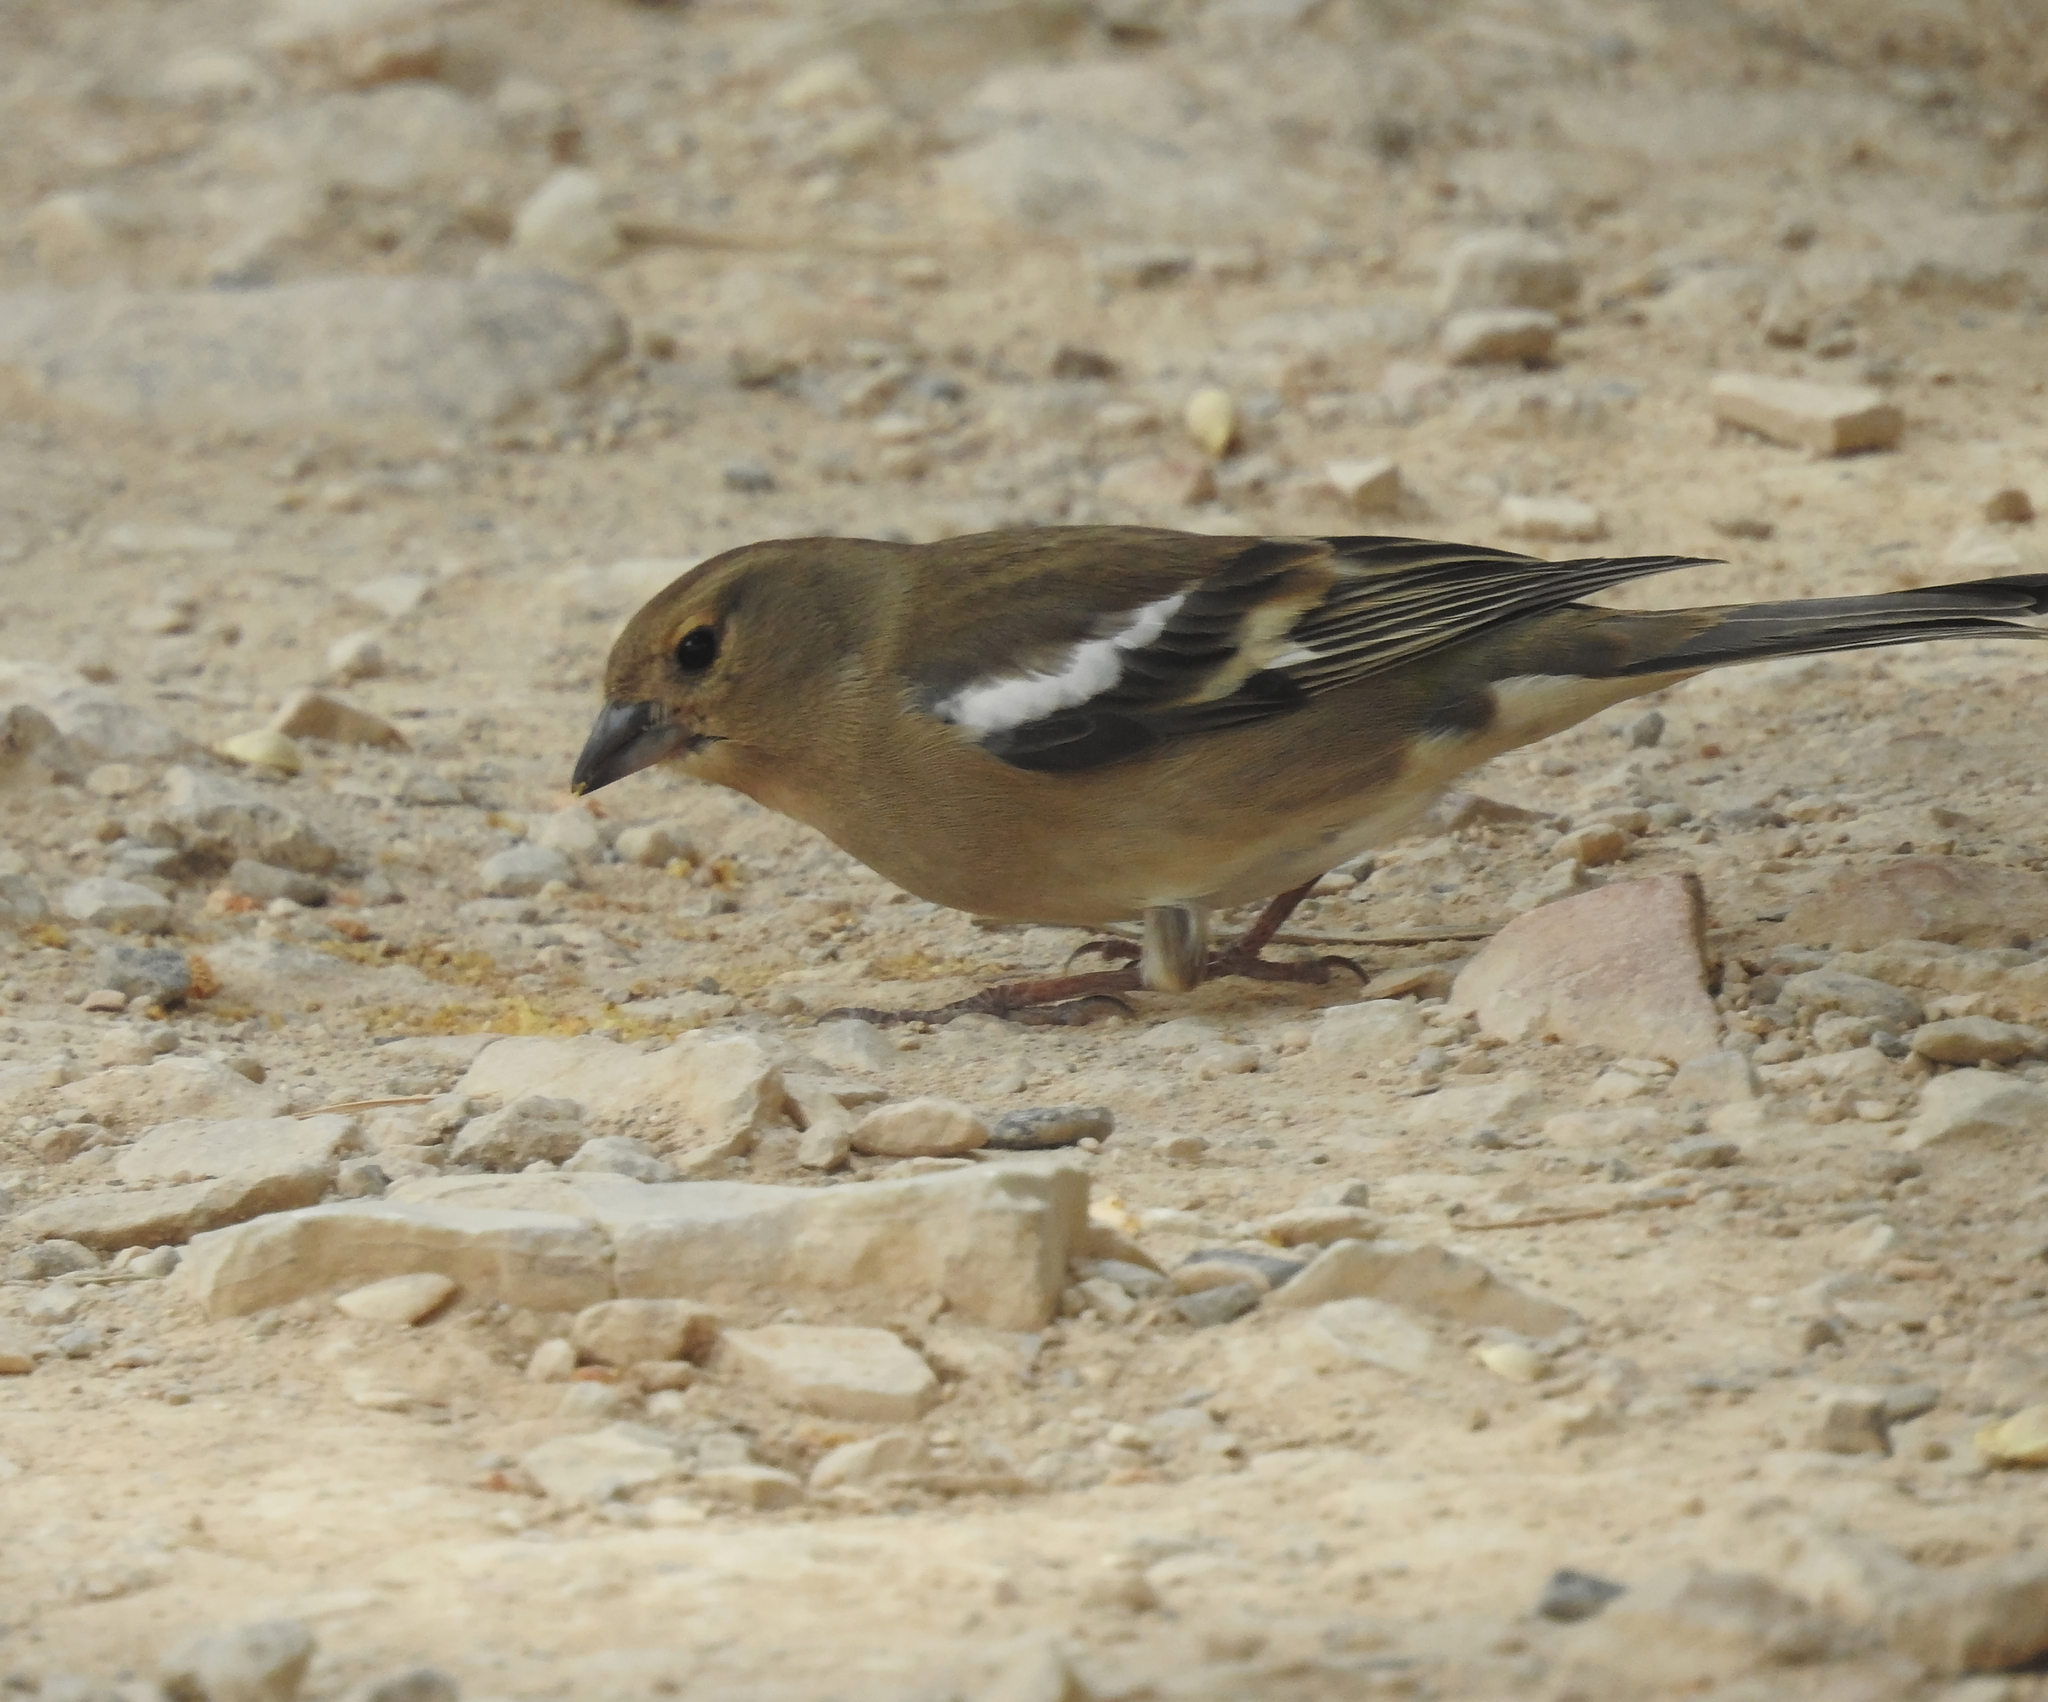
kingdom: Animalia
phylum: Chordata
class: Aves
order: Passeriformes
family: Fringillidae
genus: Fringilla
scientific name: Fringilla coelebs
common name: Common chaffinch
